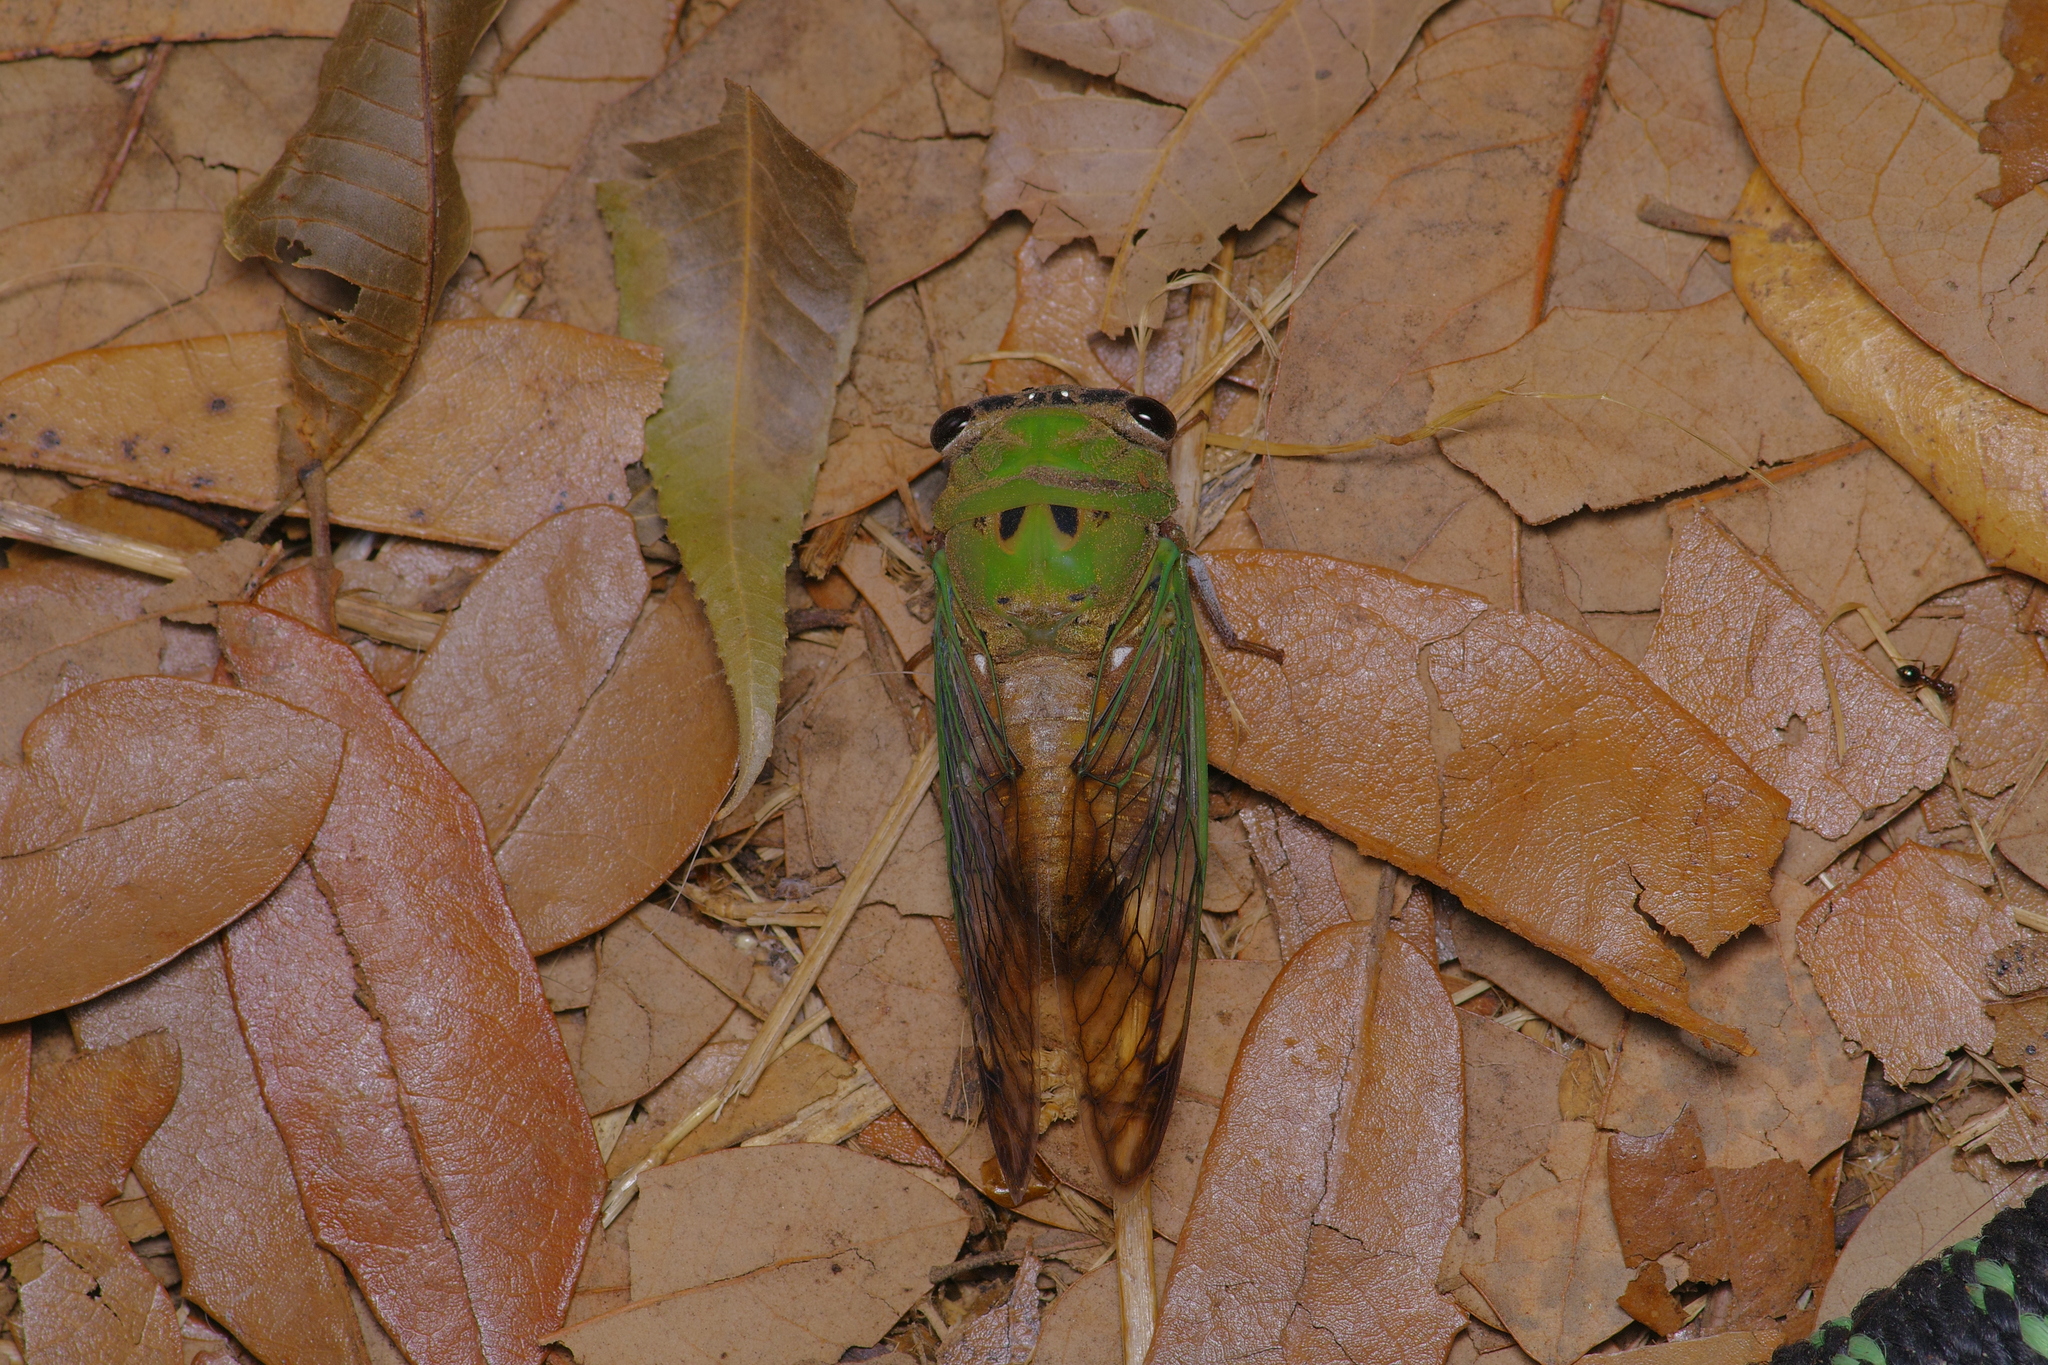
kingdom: Animalia
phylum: Arthropoda
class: Insecta
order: Hemiptera
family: Cicadidae
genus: Neotibicen
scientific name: Neotibicen superbus
